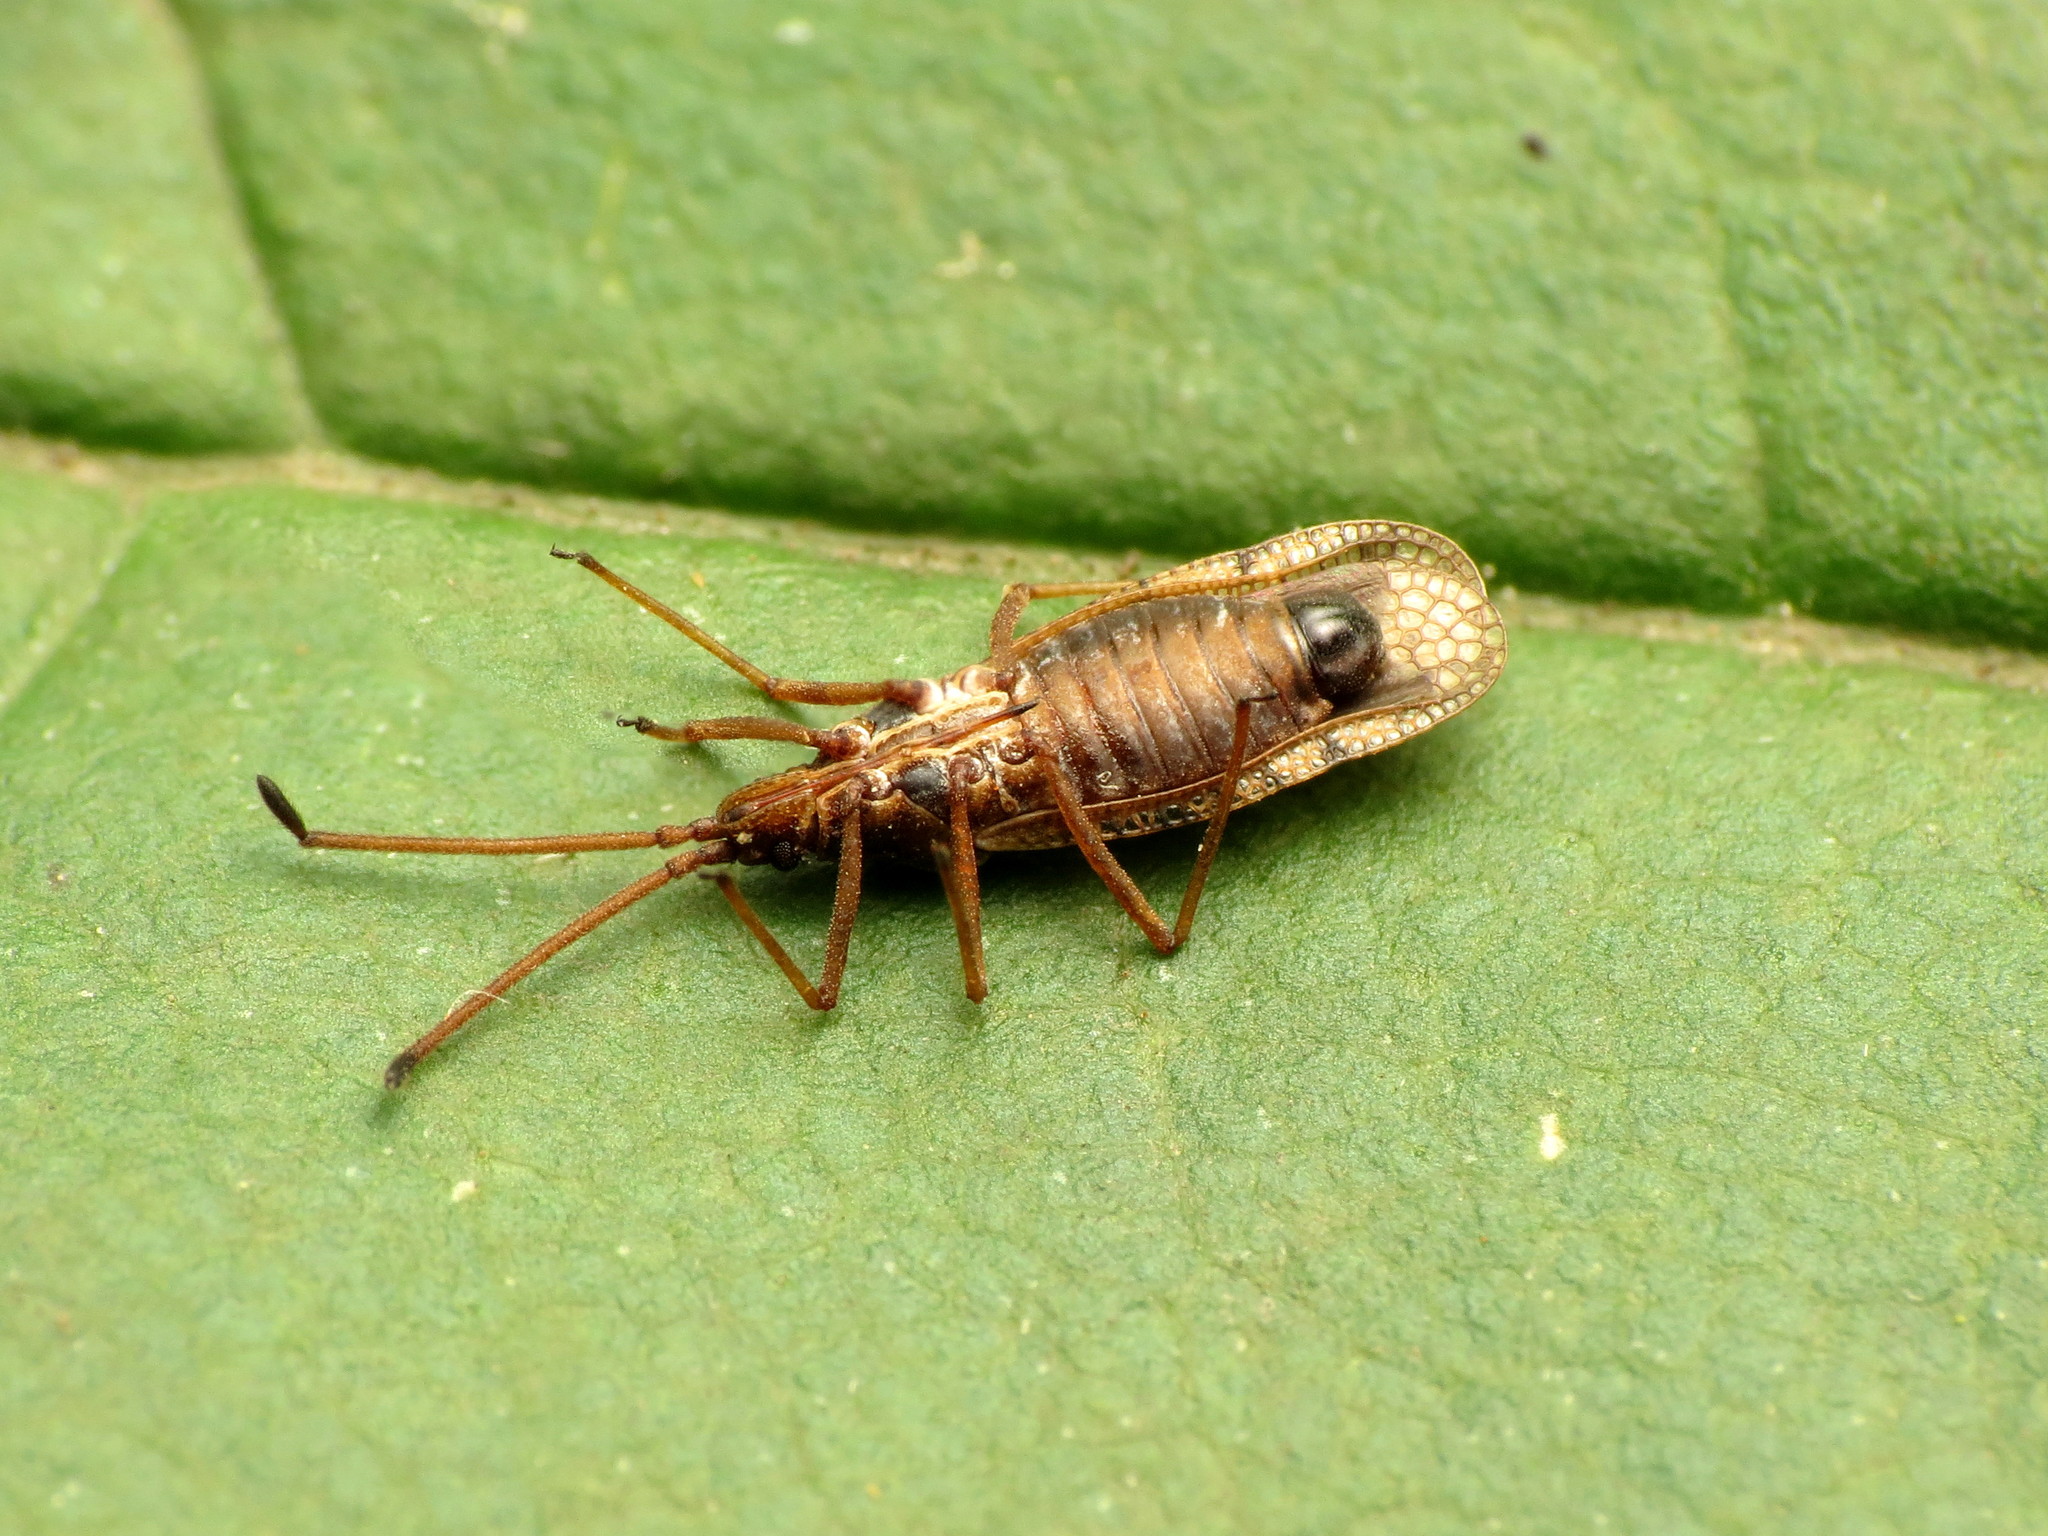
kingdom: Animalia
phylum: Arthropoda
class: Insecta
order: Hemiptera
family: Tingidae
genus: Melanorhopala
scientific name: Melanorhopala infuscata
